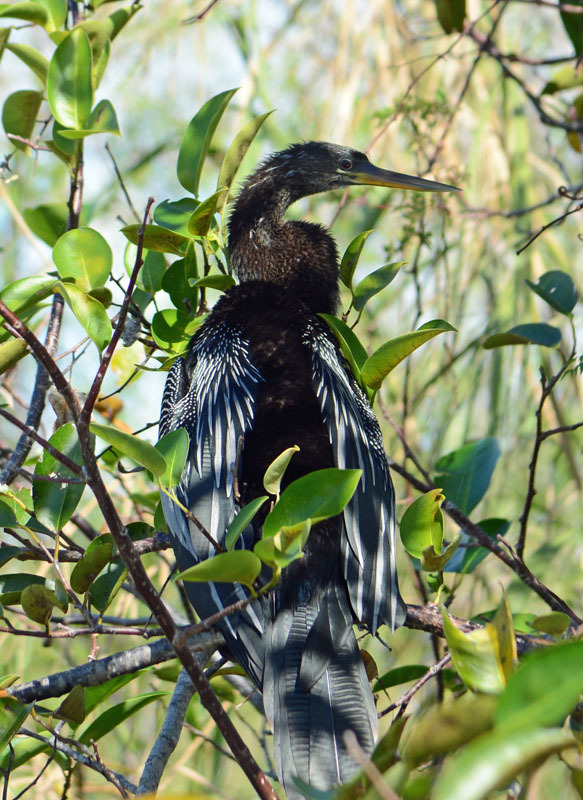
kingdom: Animalia
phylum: Chordata
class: Aves
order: Suliformes
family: Anhingidae
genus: Anhinga
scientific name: Anhinga anhinga
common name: Anhinga
